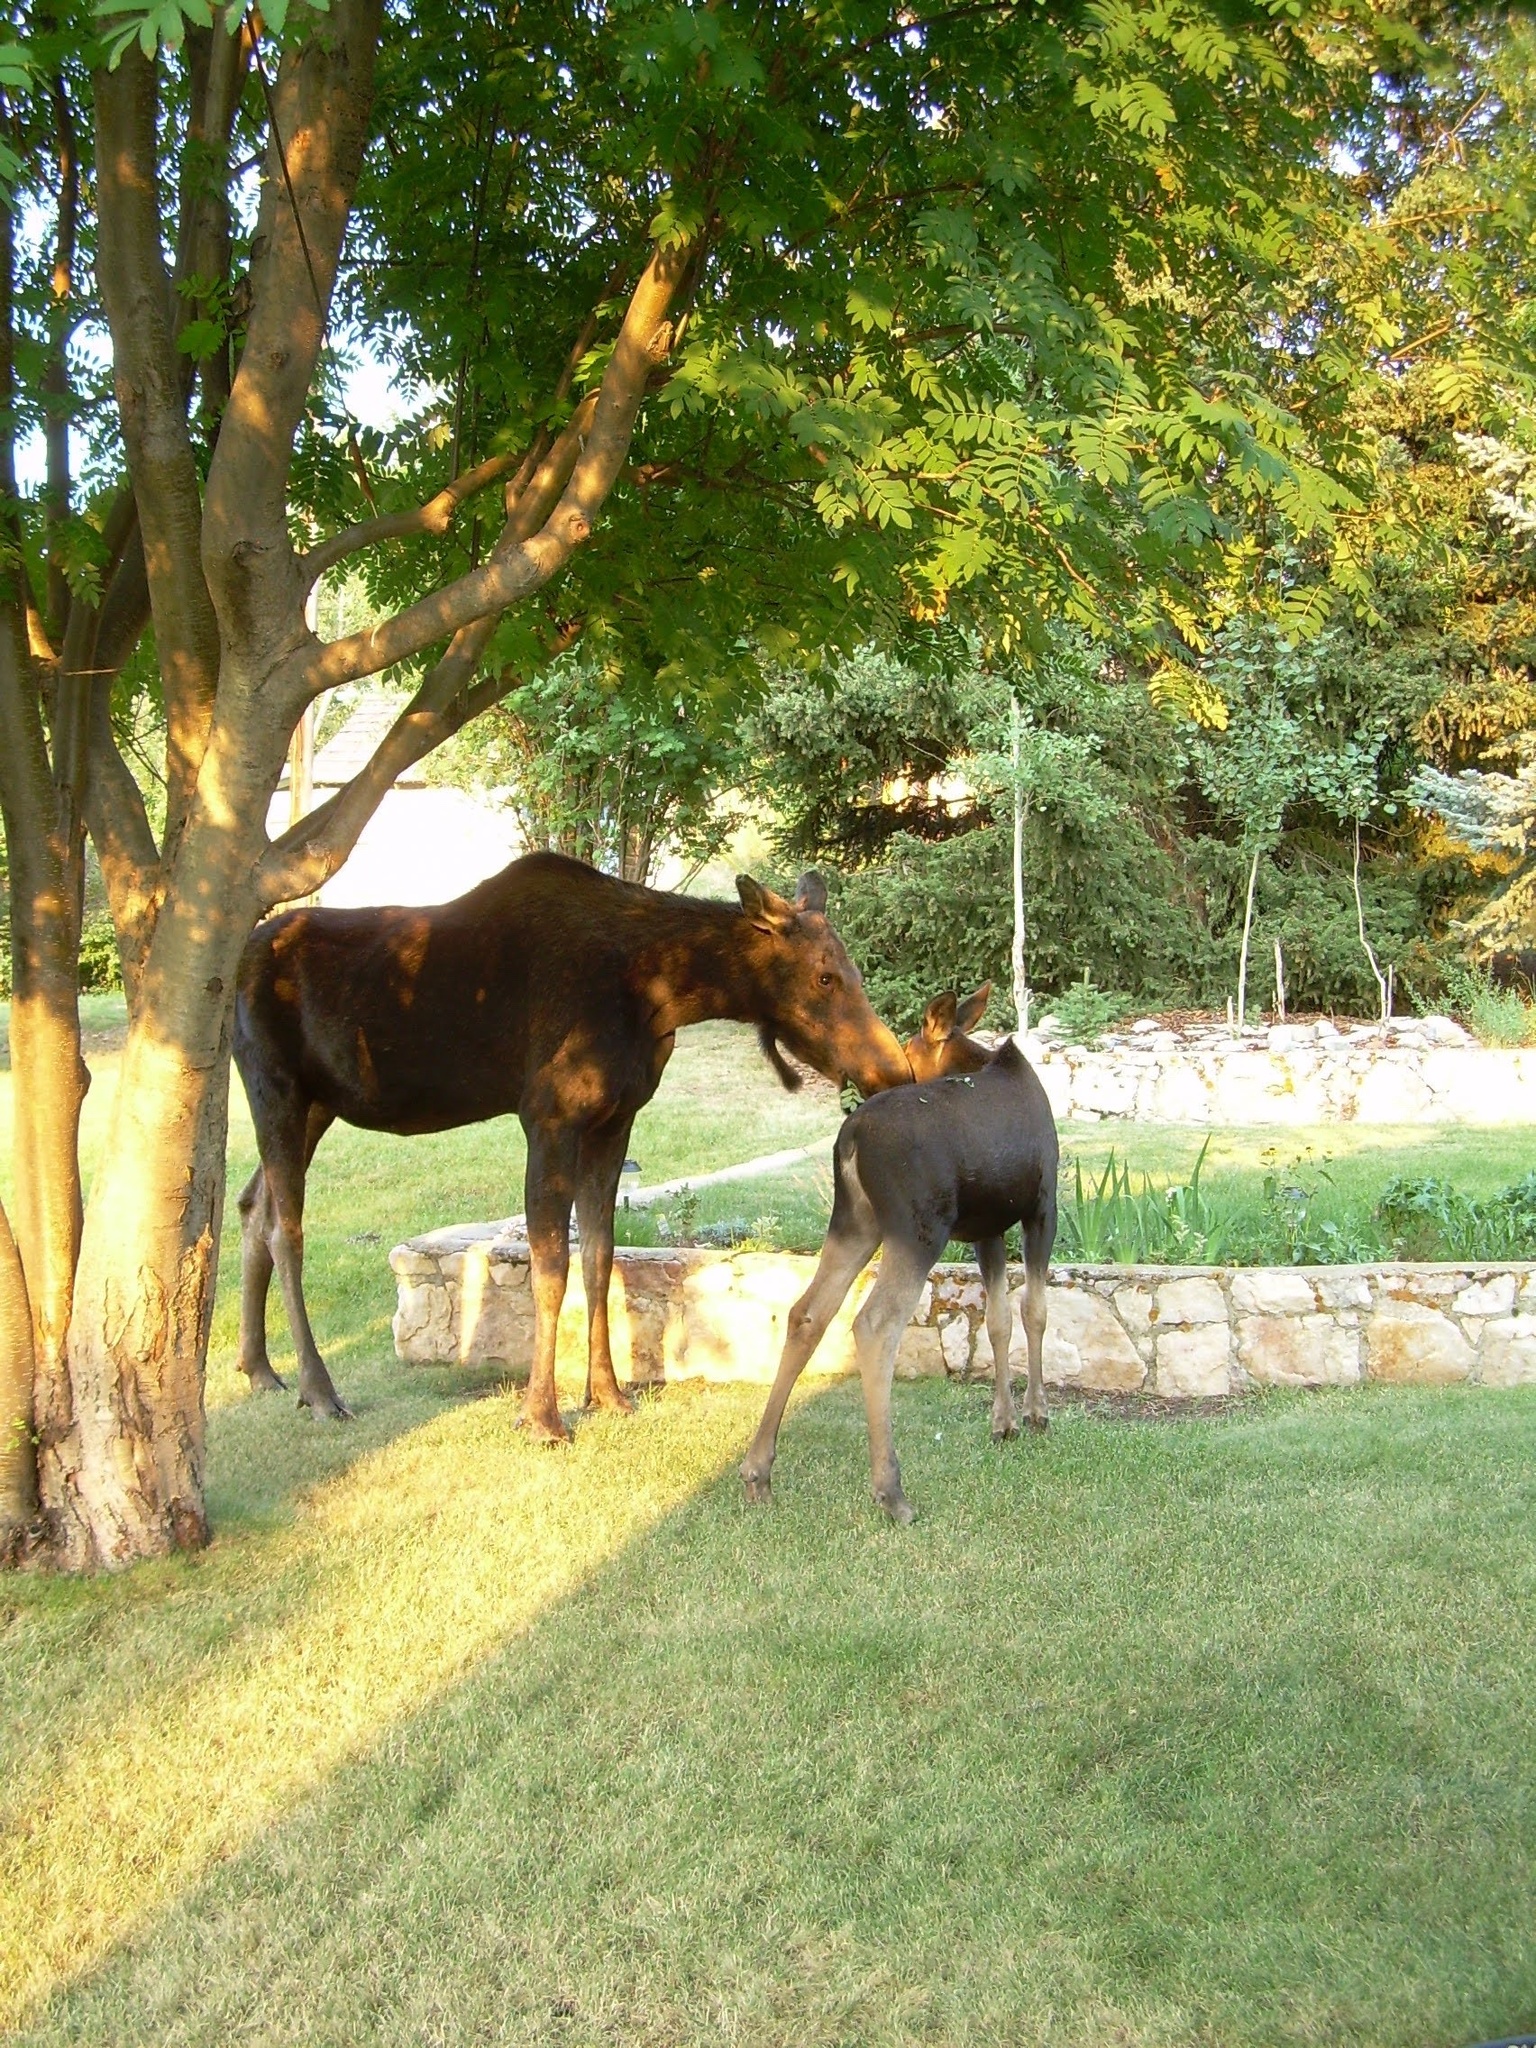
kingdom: Animalia
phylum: Chordata
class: Mammalia
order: Artiodactyla
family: Cervidae
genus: Alces
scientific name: Alces alces
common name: Moose
